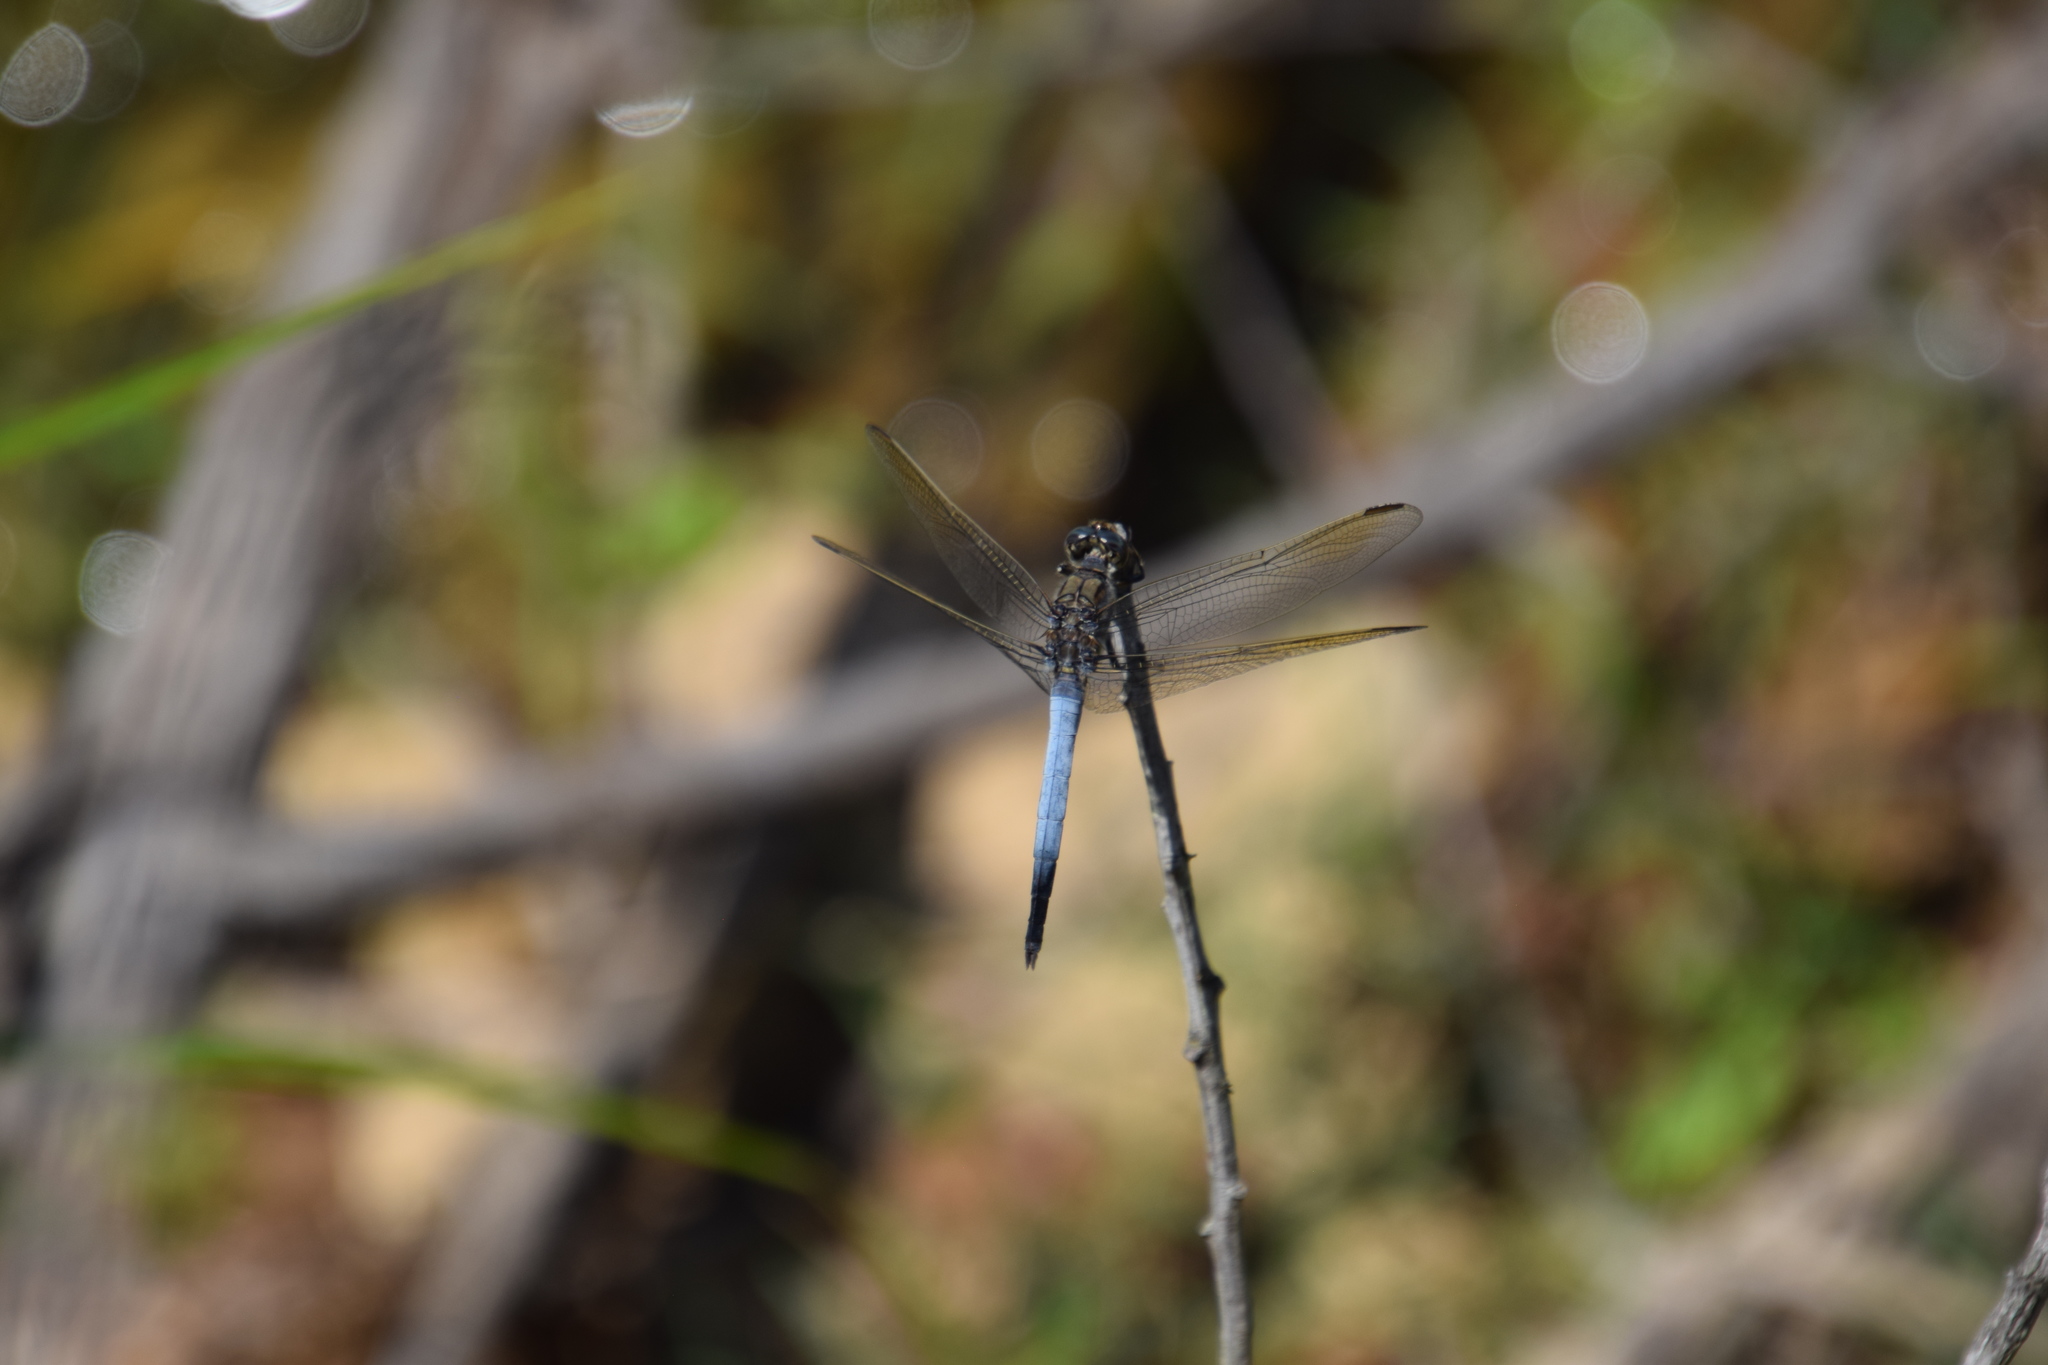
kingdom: Animalia
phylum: Arthropoda
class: Insecta
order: Odonata
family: Libellulidae
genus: Orthetrum
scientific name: Orthetrum caledonicum
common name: Blue skimmer
